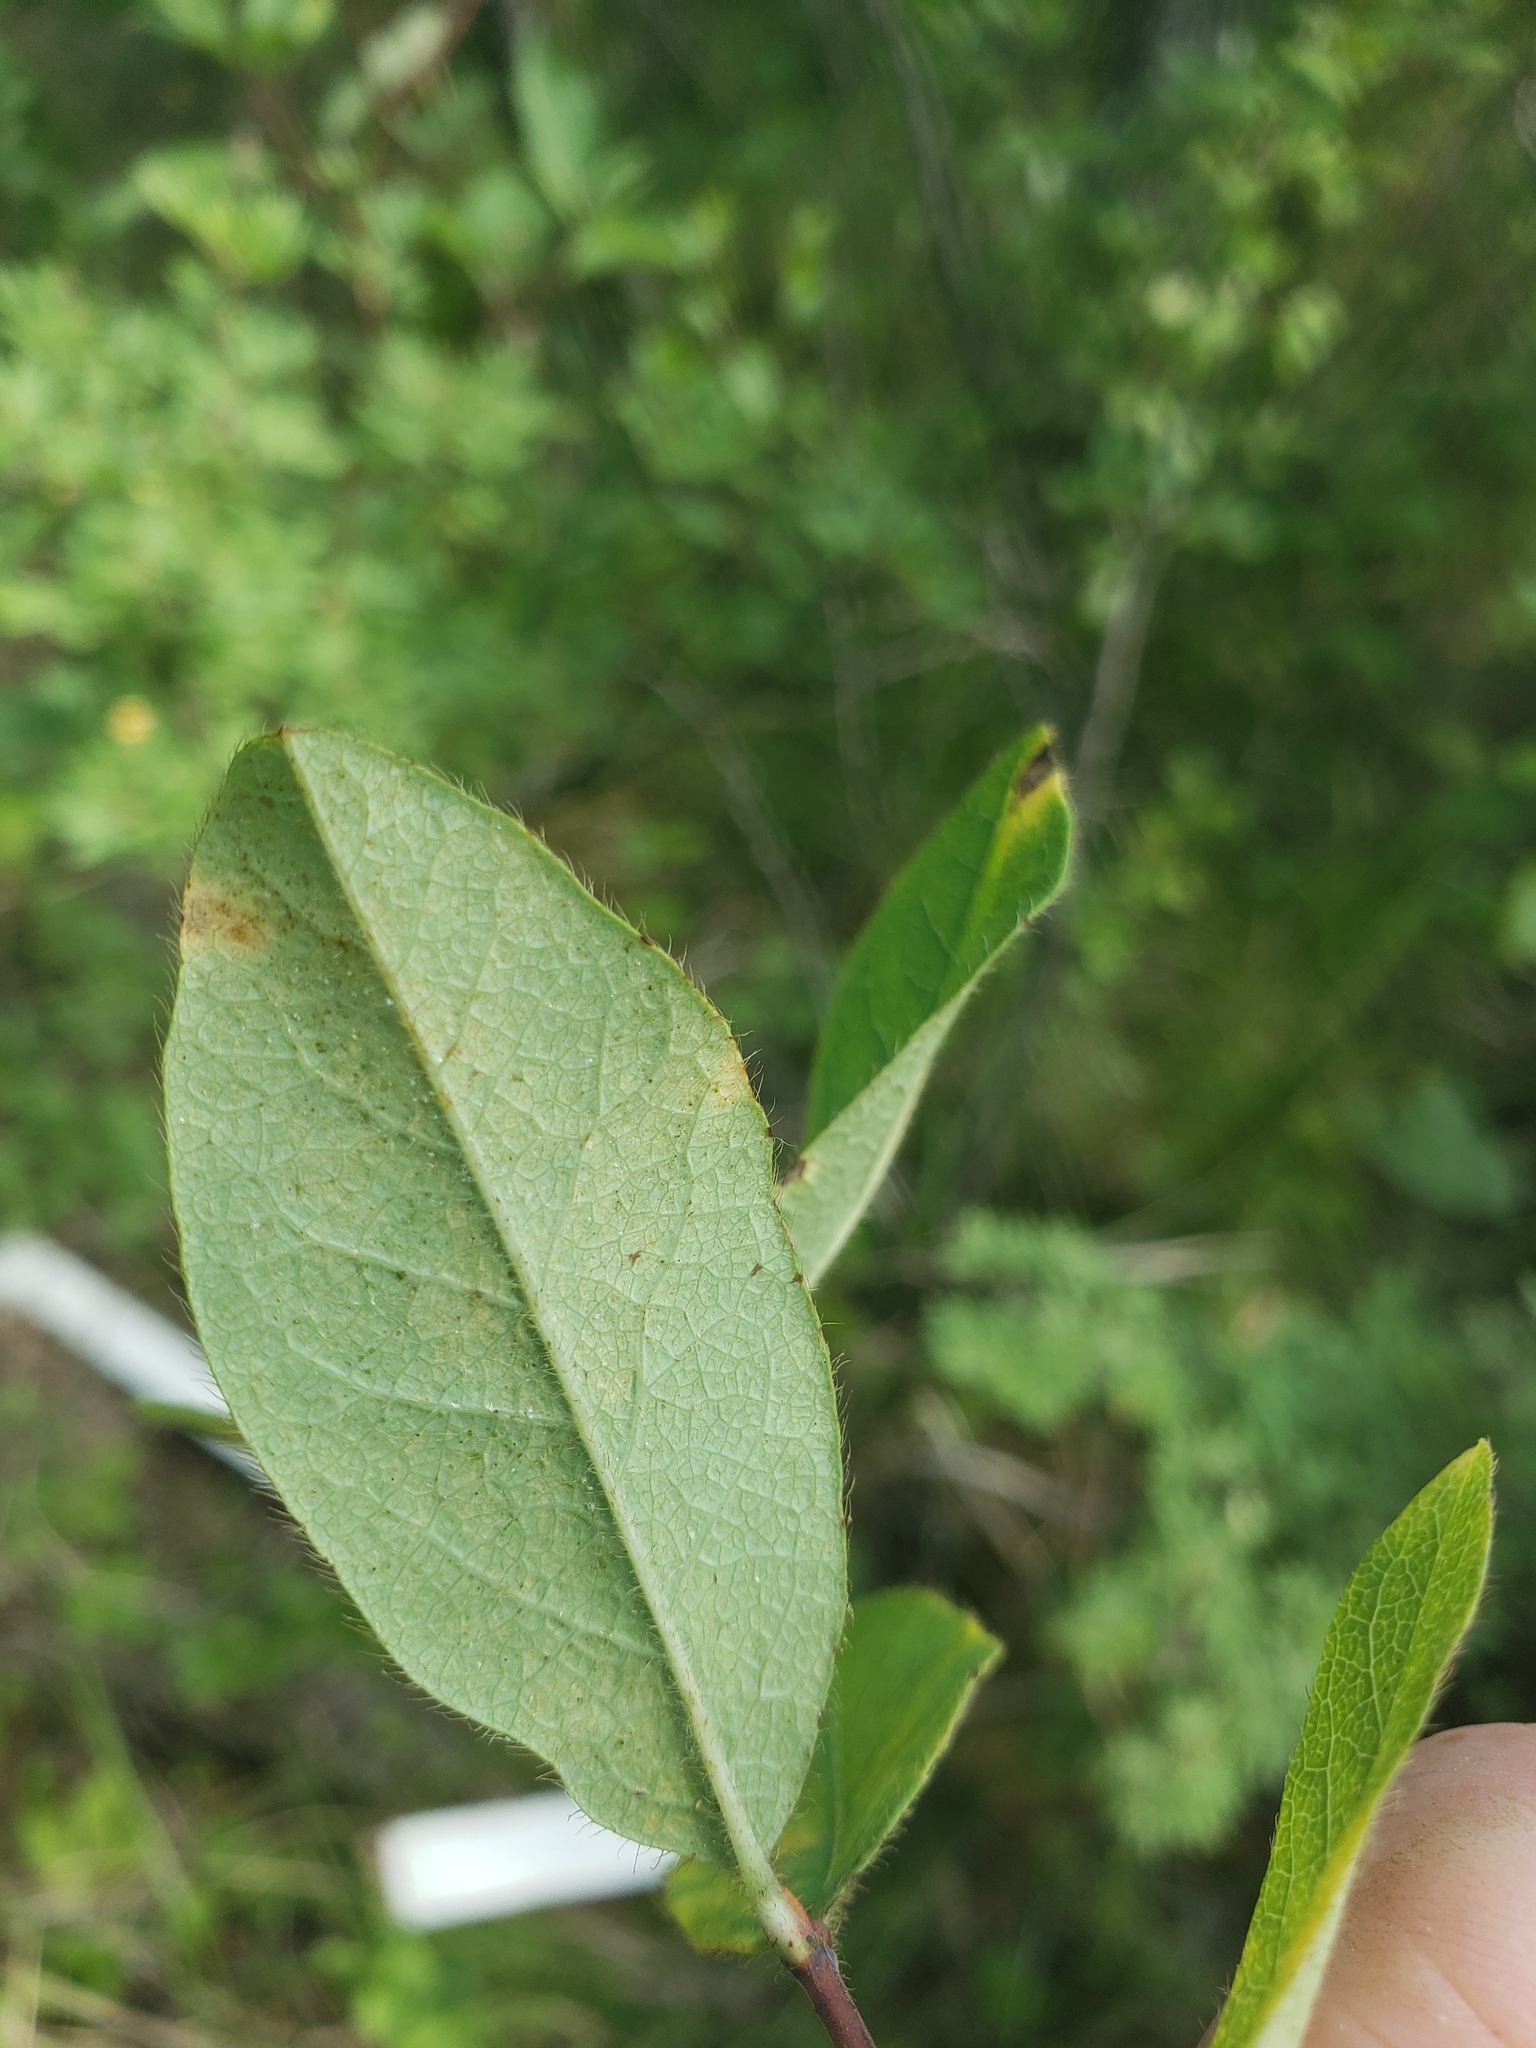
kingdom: Plantae
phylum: Tracheophyta
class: Magnoliopsida
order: Dipsacales
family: Caprifoliaceae
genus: Lonicera
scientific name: Lonicera villosa
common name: Mountain fly-honeysuckle
